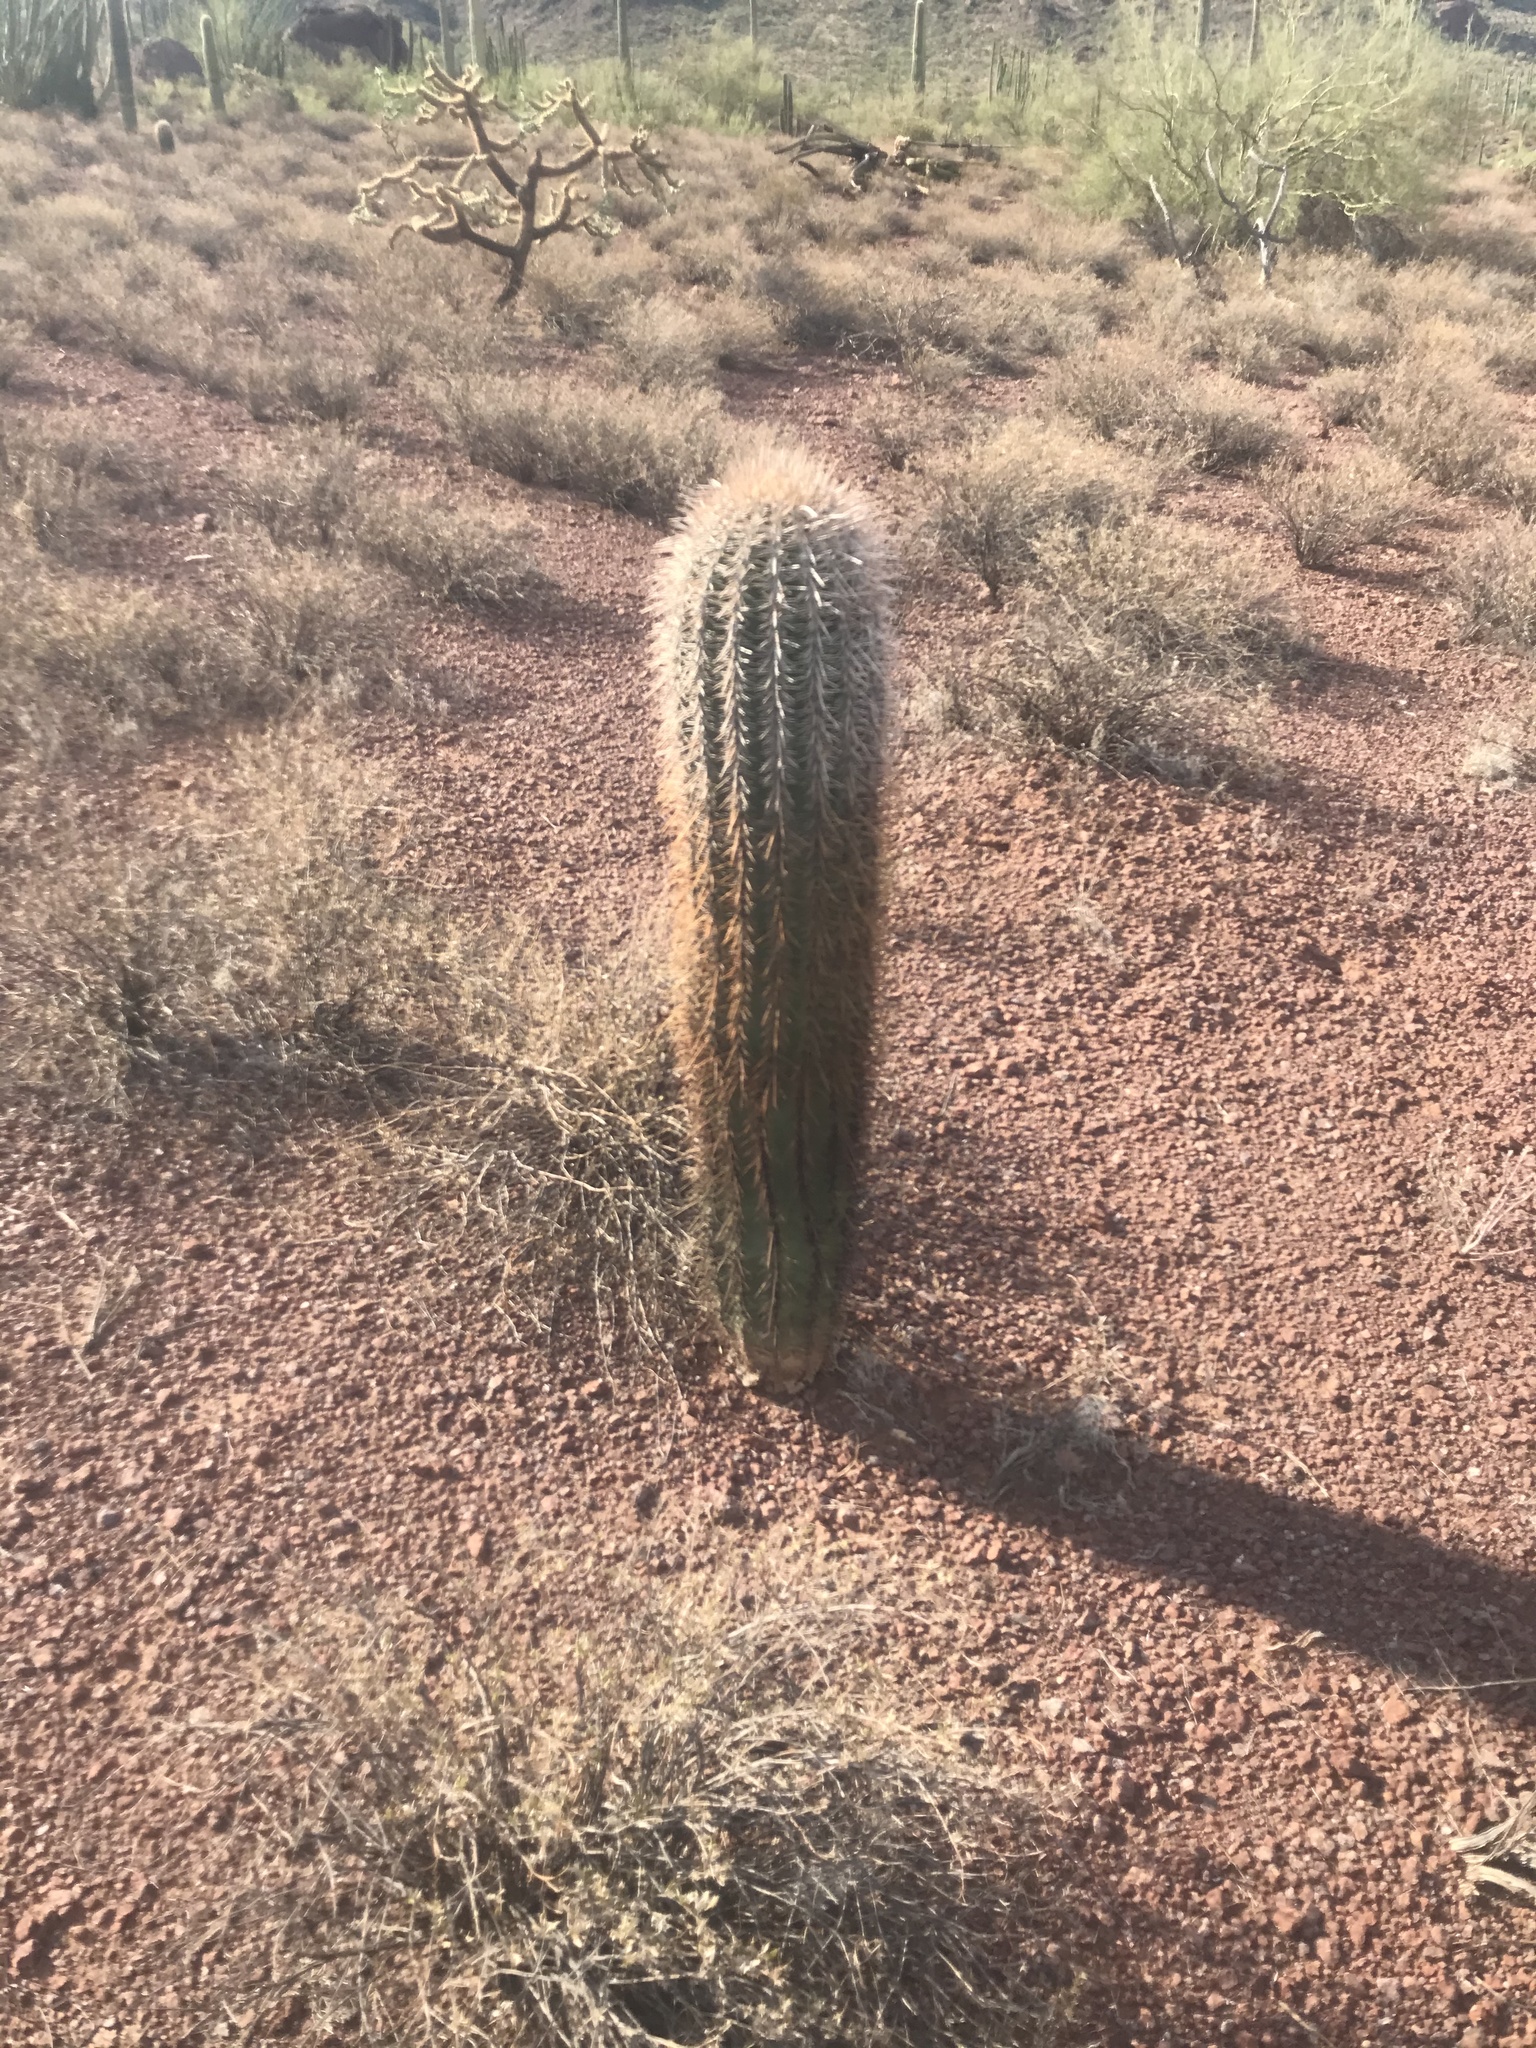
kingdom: Plantae
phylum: Tracheophyta
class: Magnoliopsida
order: Caryophyllales
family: Cactaceae
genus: Carnegiea
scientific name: Carnegiea gigantea
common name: Saguaro
